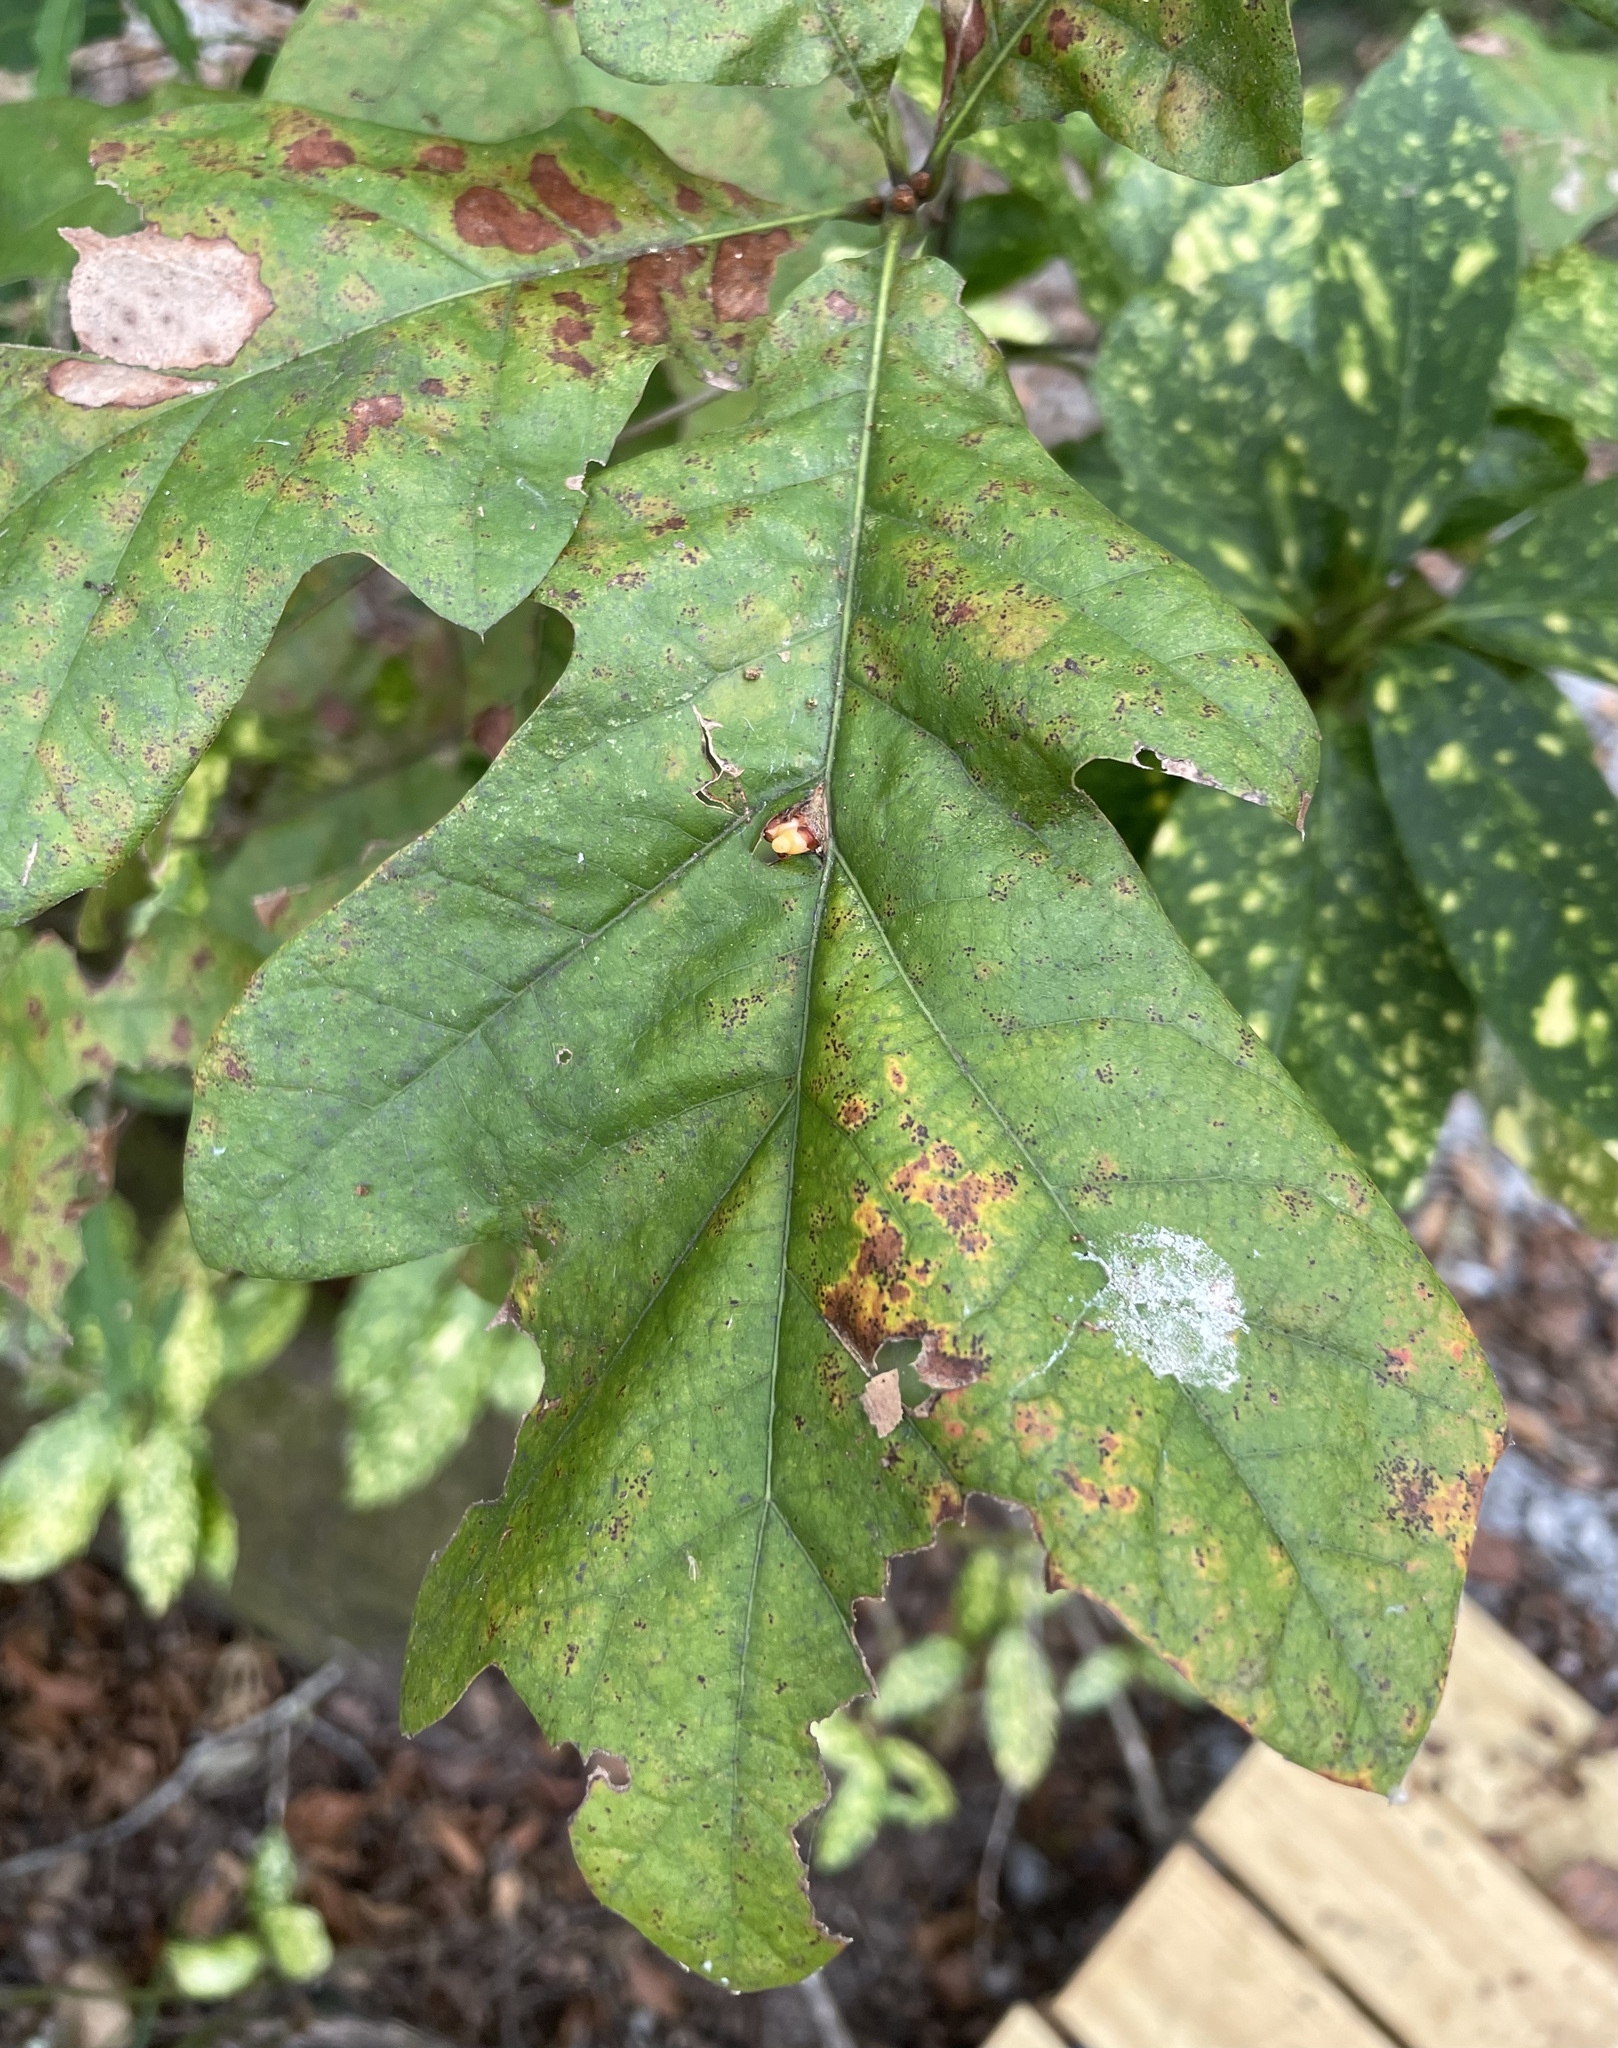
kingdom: Animalia
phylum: Arthropoda
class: Insecta
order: Hymenoptera
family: Cynipidae
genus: Kokkocynips
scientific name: Kokkocynips decidua
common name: Oak wheat gall
